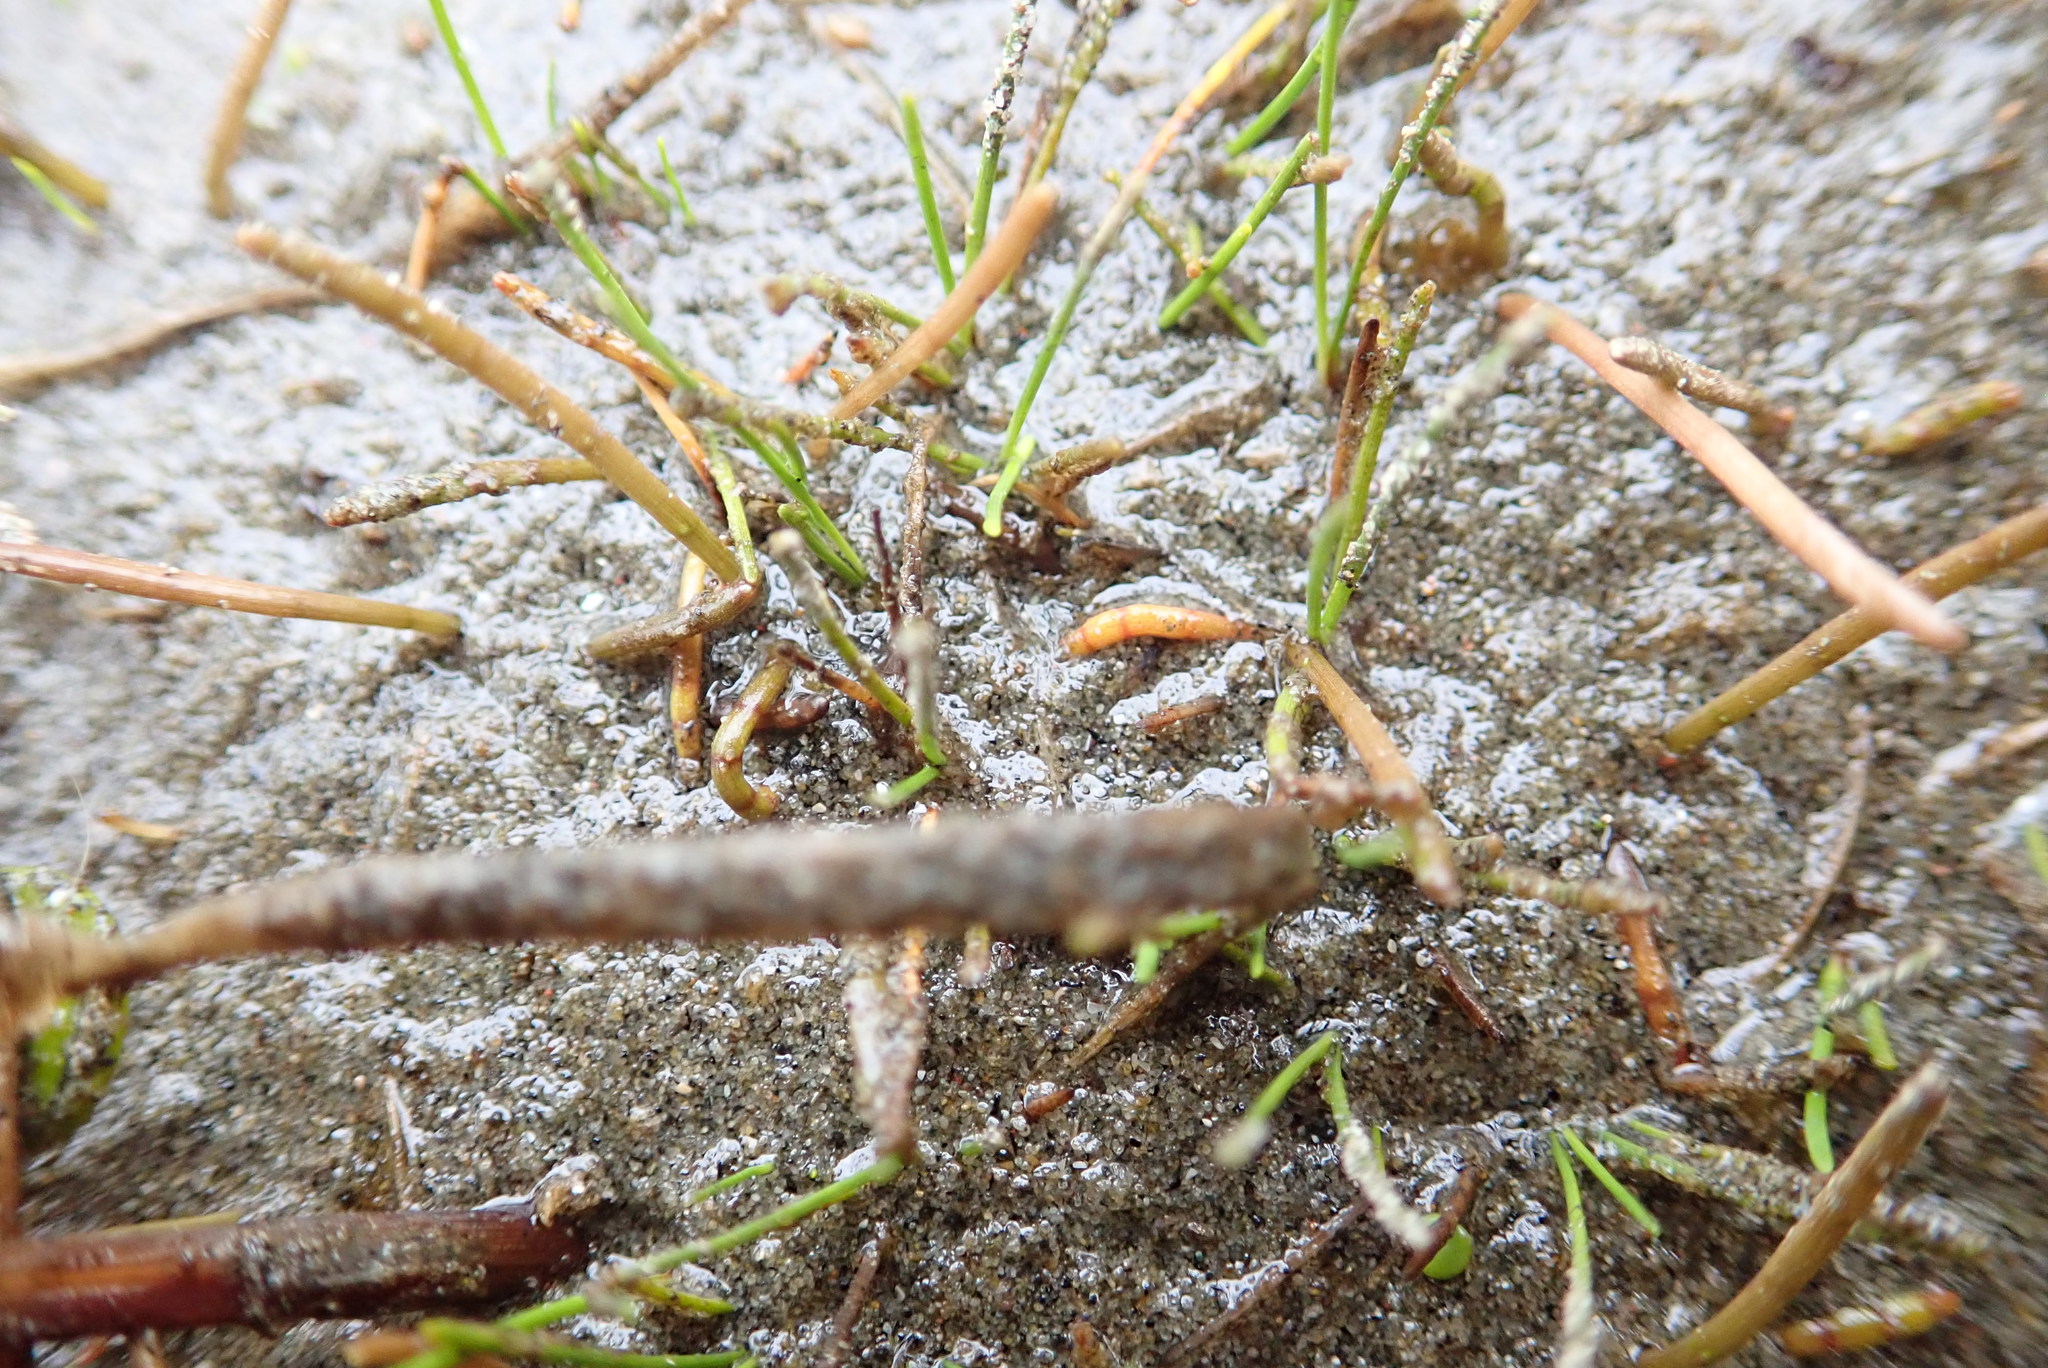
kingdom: Plantae
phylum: Tracheophyta
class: Magnoliopsida
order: Apiales
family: Apiaceae
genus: Lilaeopsis
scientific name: Lilaeopsis novae-zelandiae
